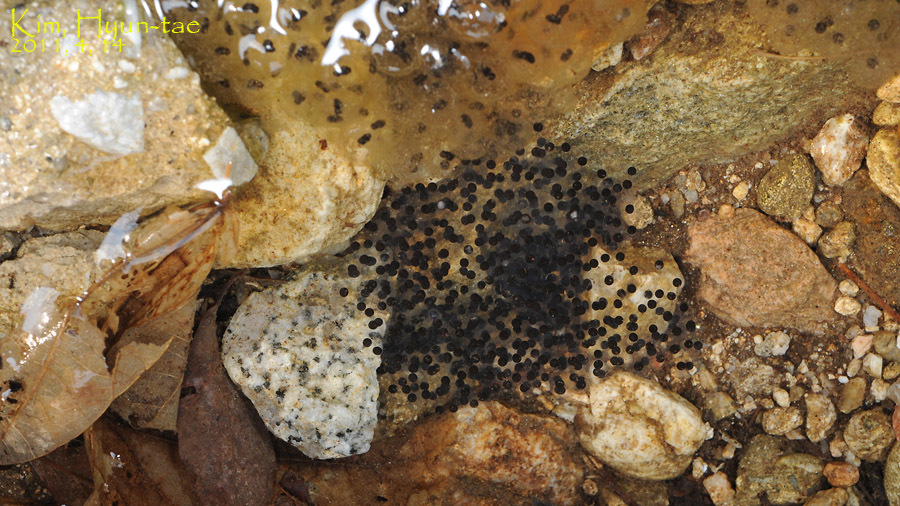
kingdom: Animalia
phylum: Chordata
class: Amphibia
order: Anura
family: Ranidae
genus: Rana
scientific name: Rana huanrenensis
